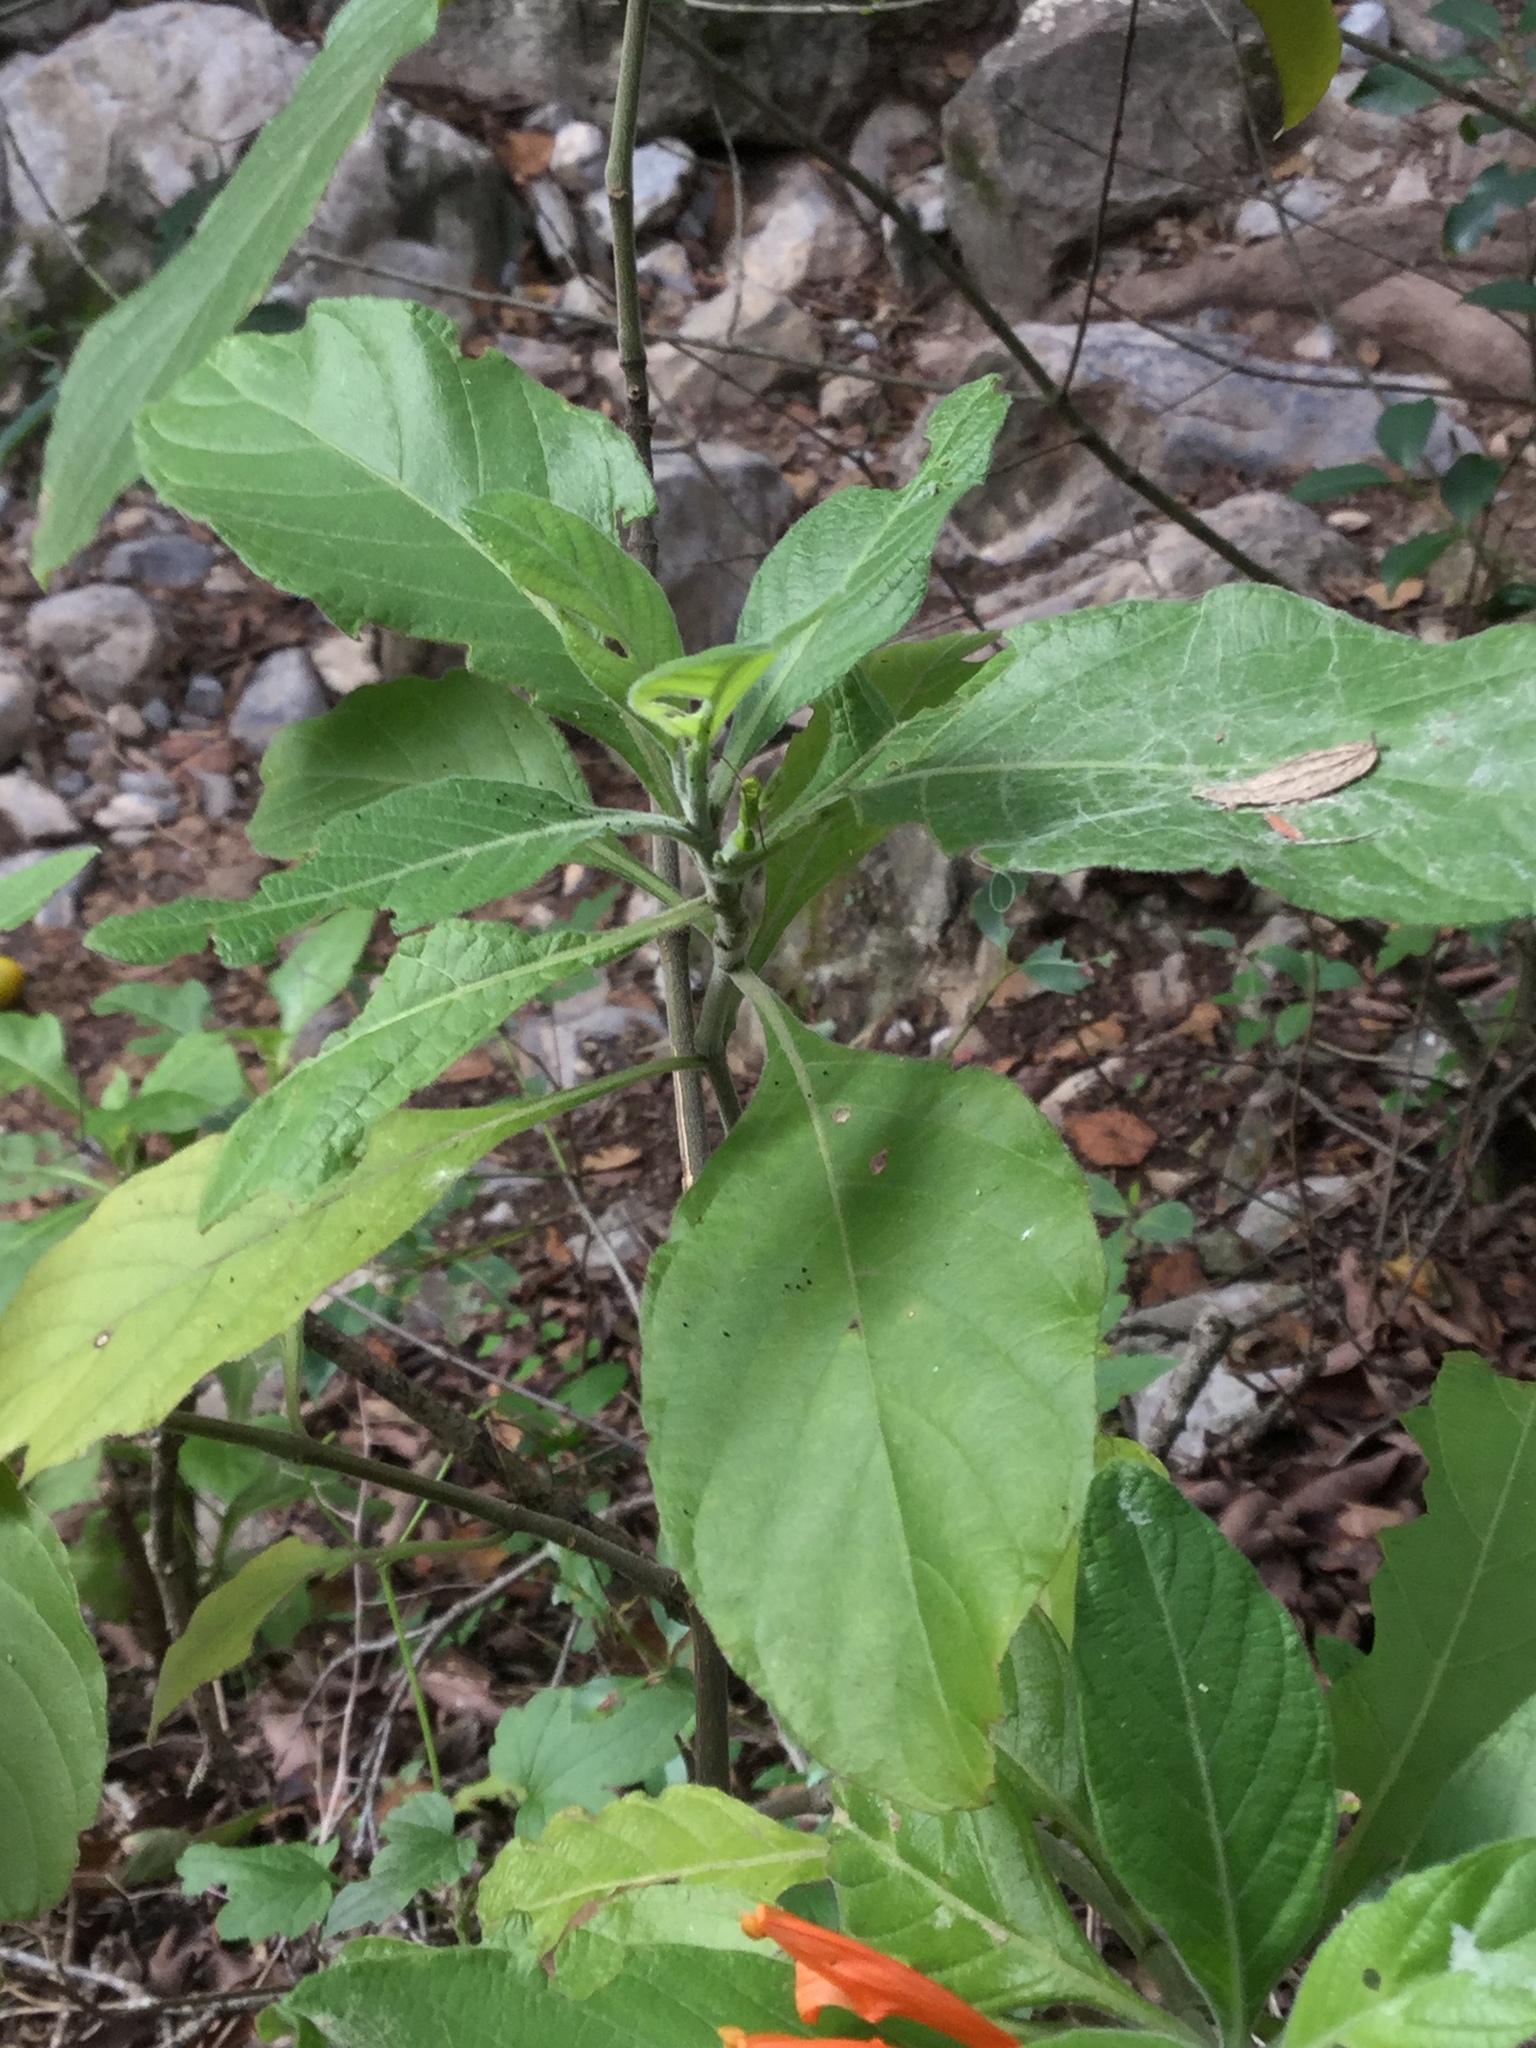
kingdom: Plantae
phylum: Tracheophyta
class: Magnoliopsida
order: Lamiales
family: Acanthaceae
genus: Justicia
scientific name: Justicia spicigera
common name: Mohintli
